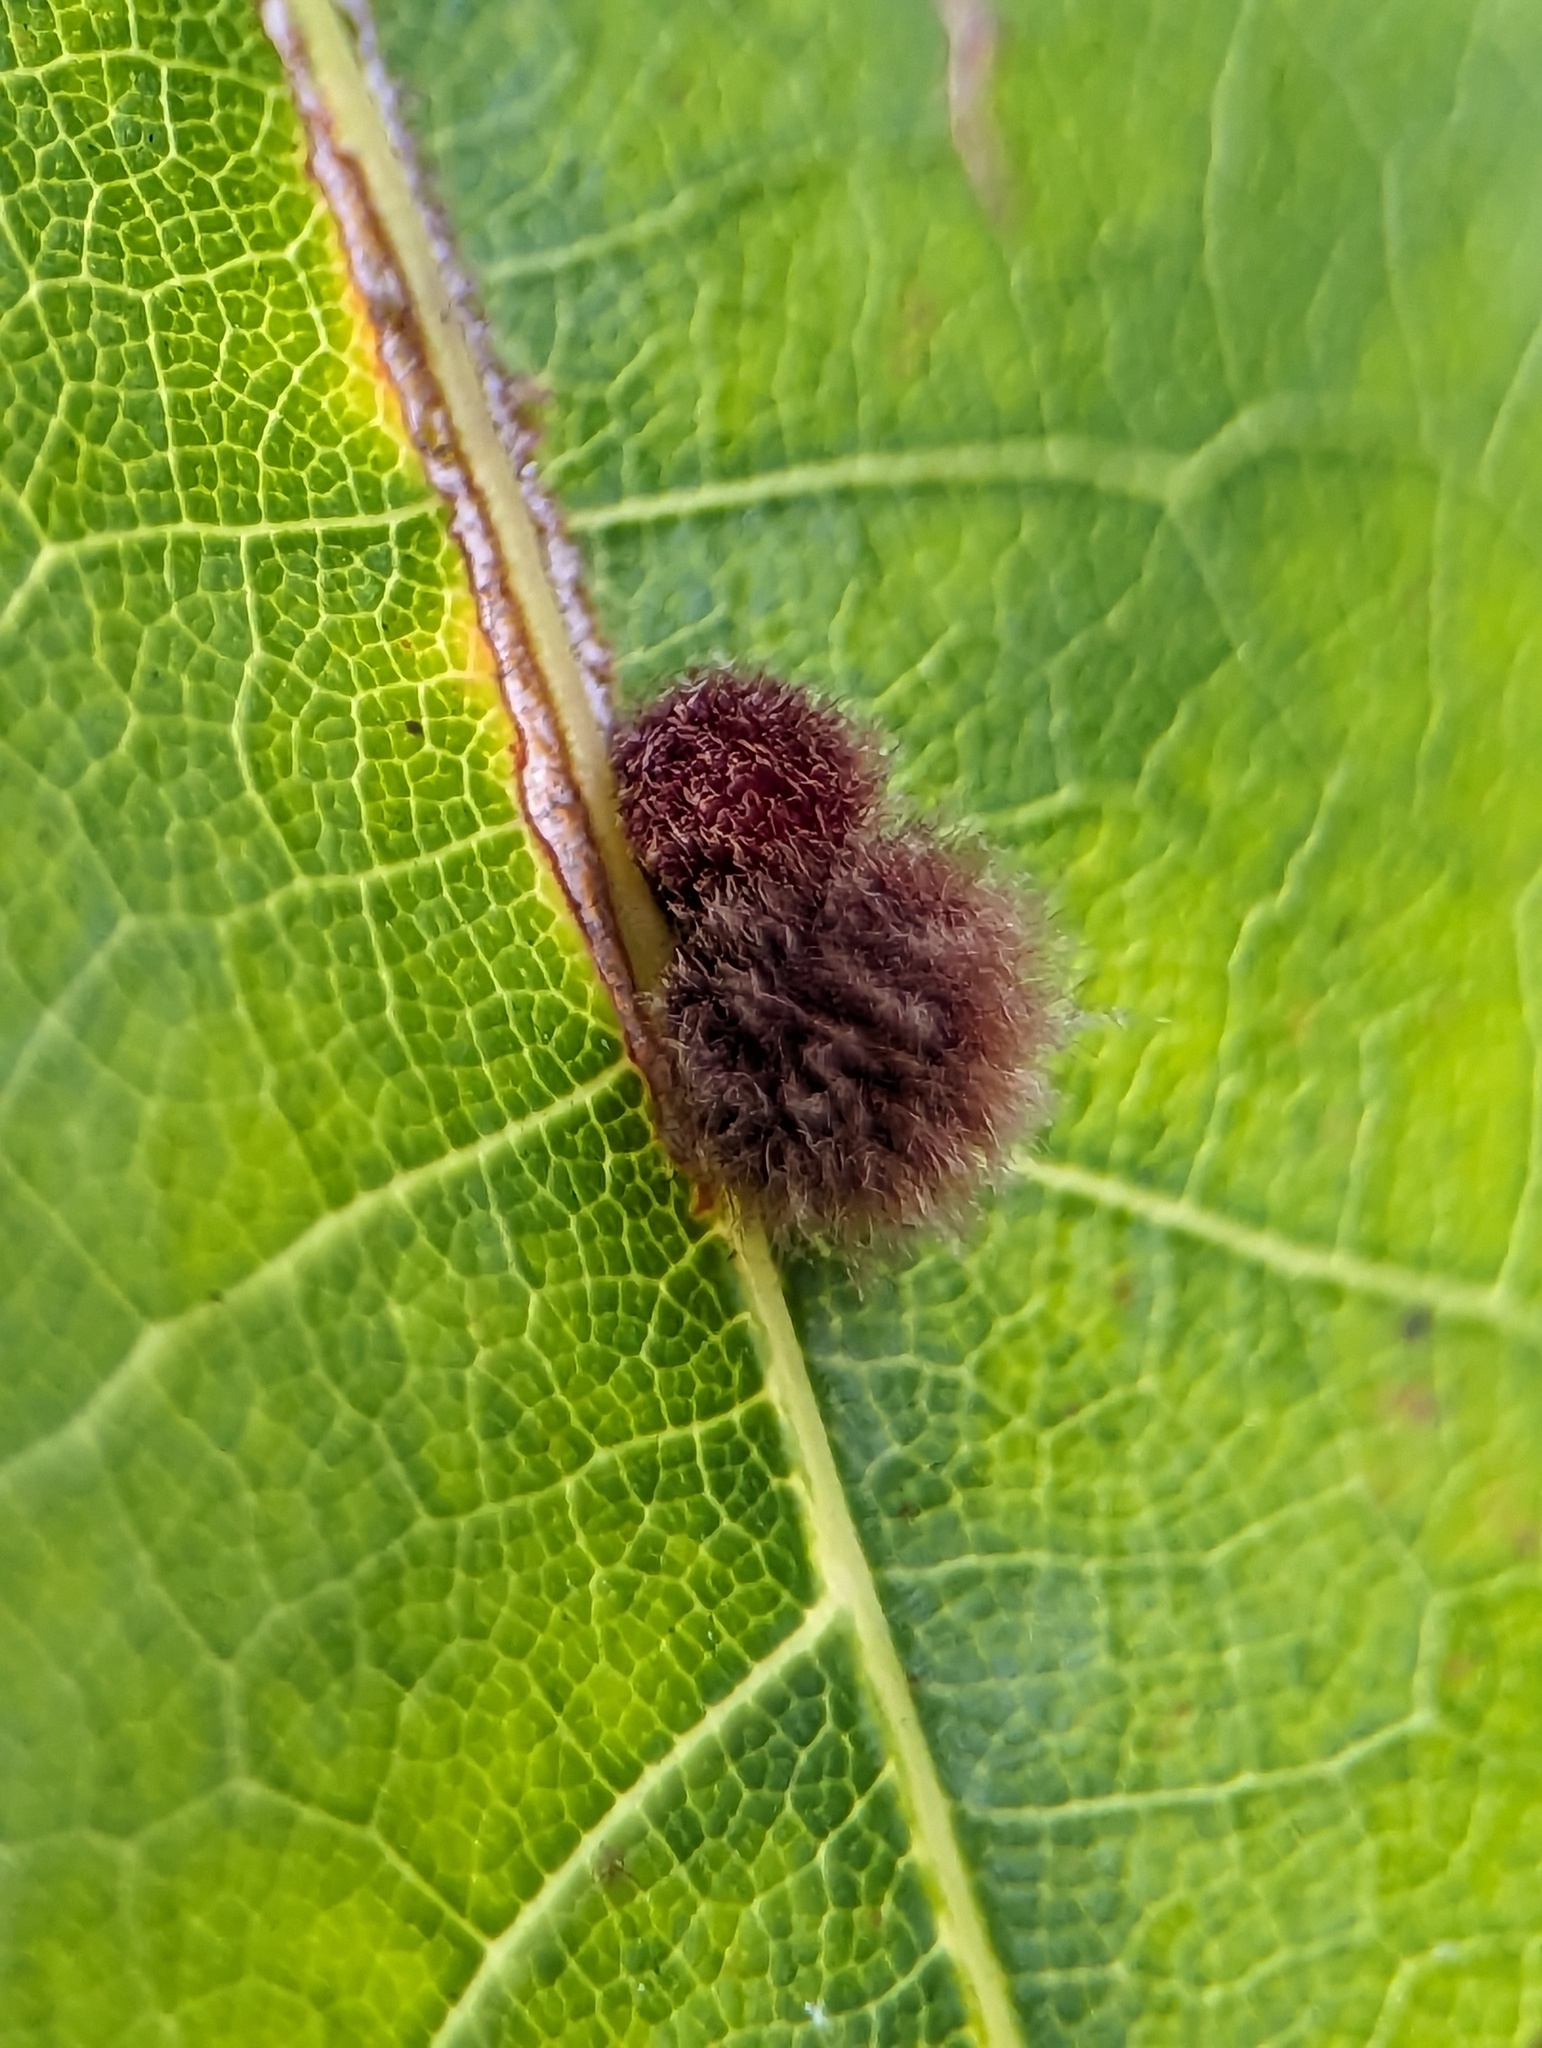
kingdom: Animalia
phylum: Arthropoda
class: Insecta
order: Hymenoptera
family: Cynipidae
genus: Callirhytis
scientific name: Callirhytis
